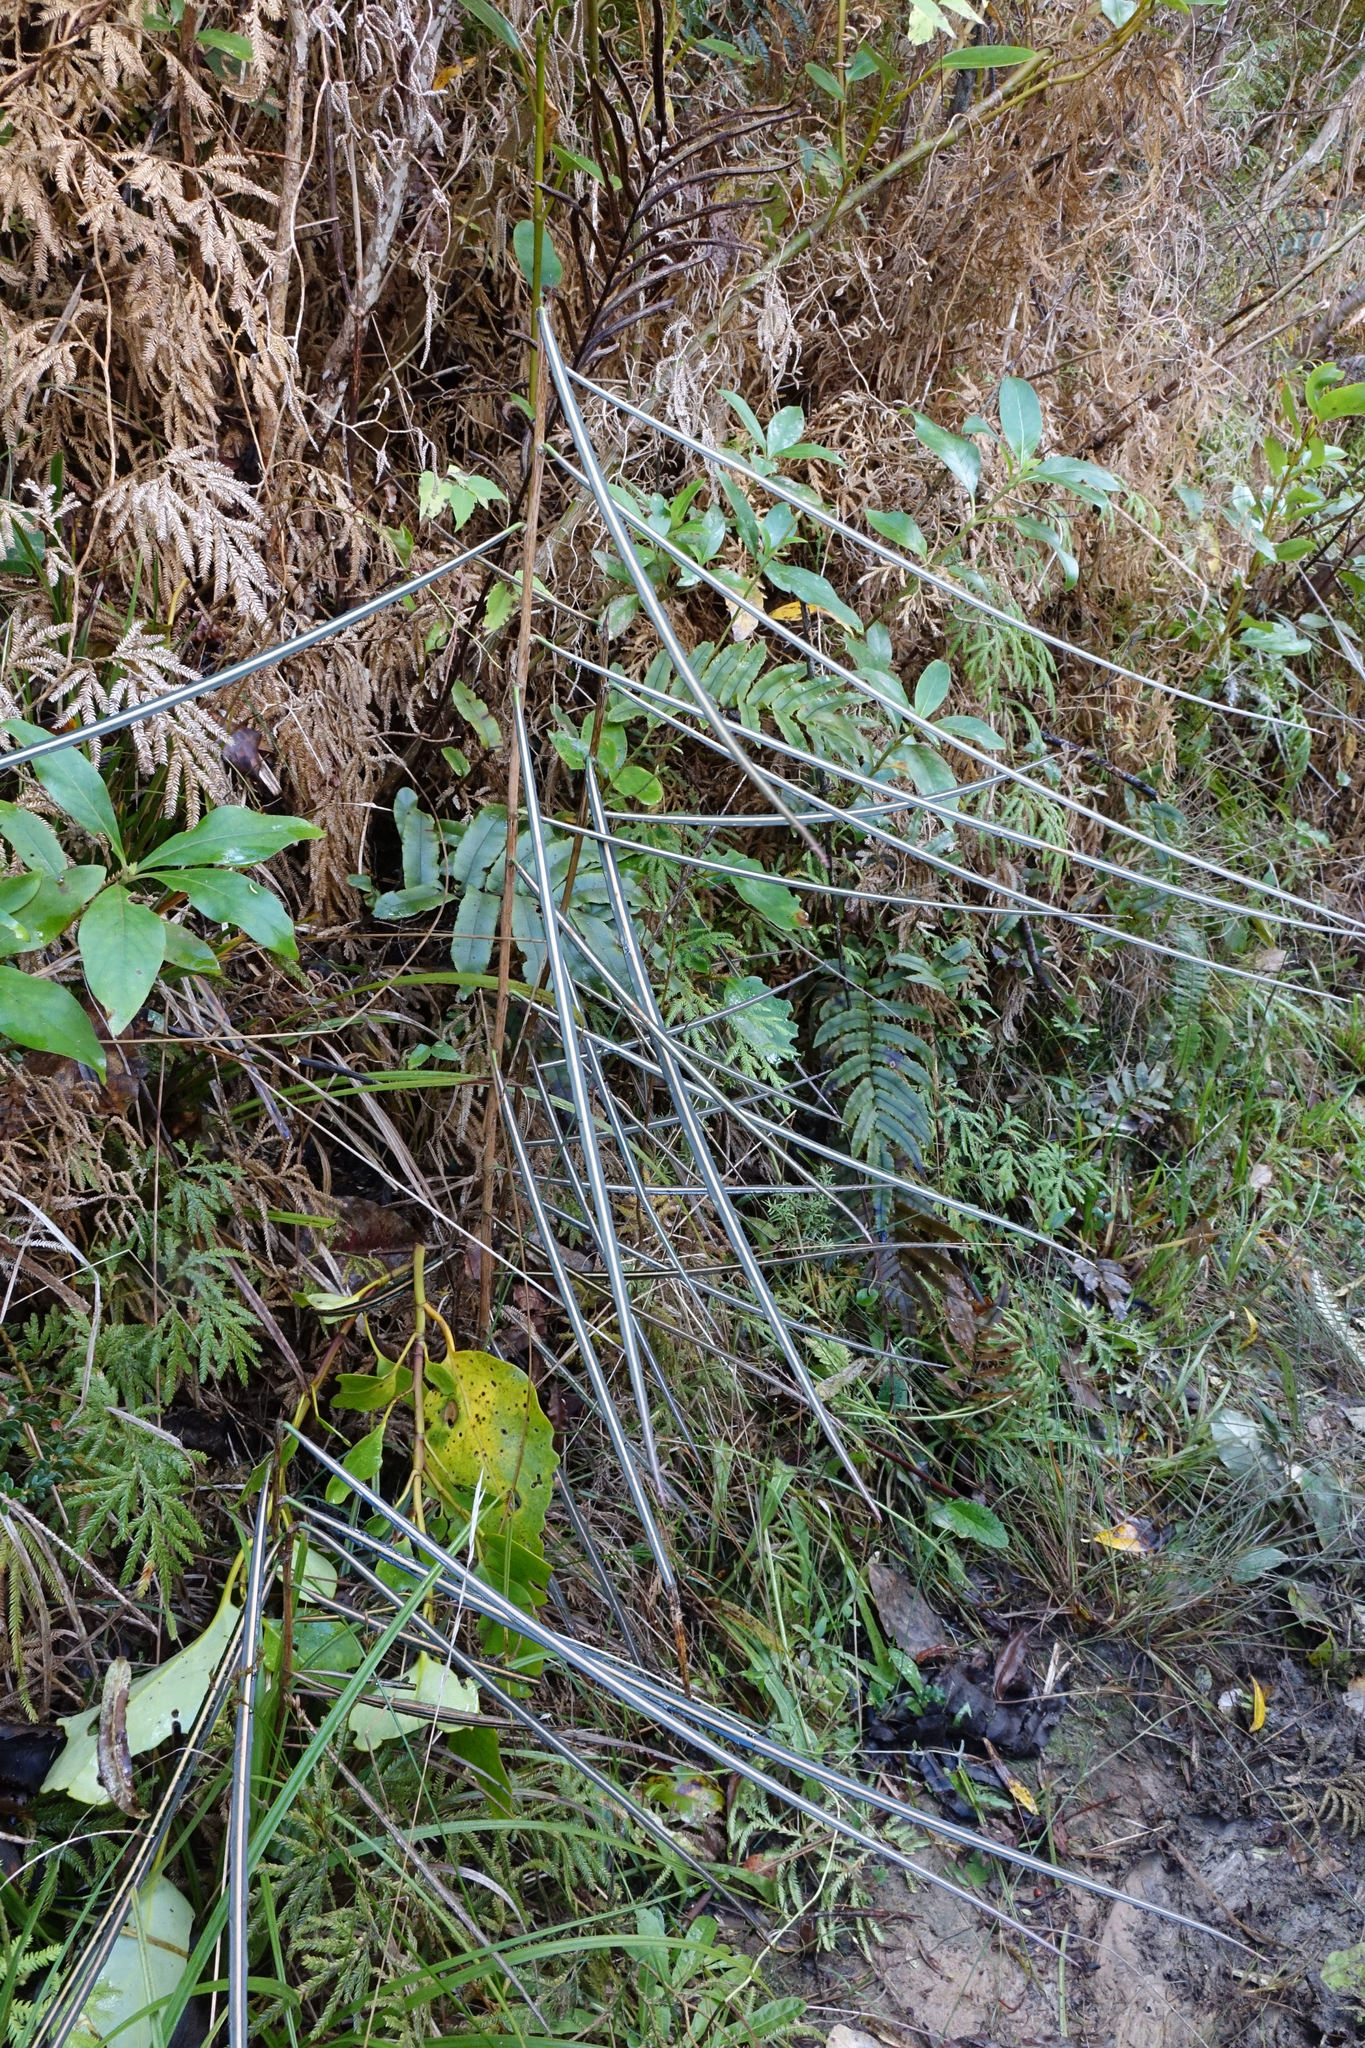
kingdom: Plantae
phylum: Tracheophyta
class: Magnoliopsida
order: Apiales
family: Araliaceae
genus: Pseudopanax
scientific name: Pseudopanax crassifolius
